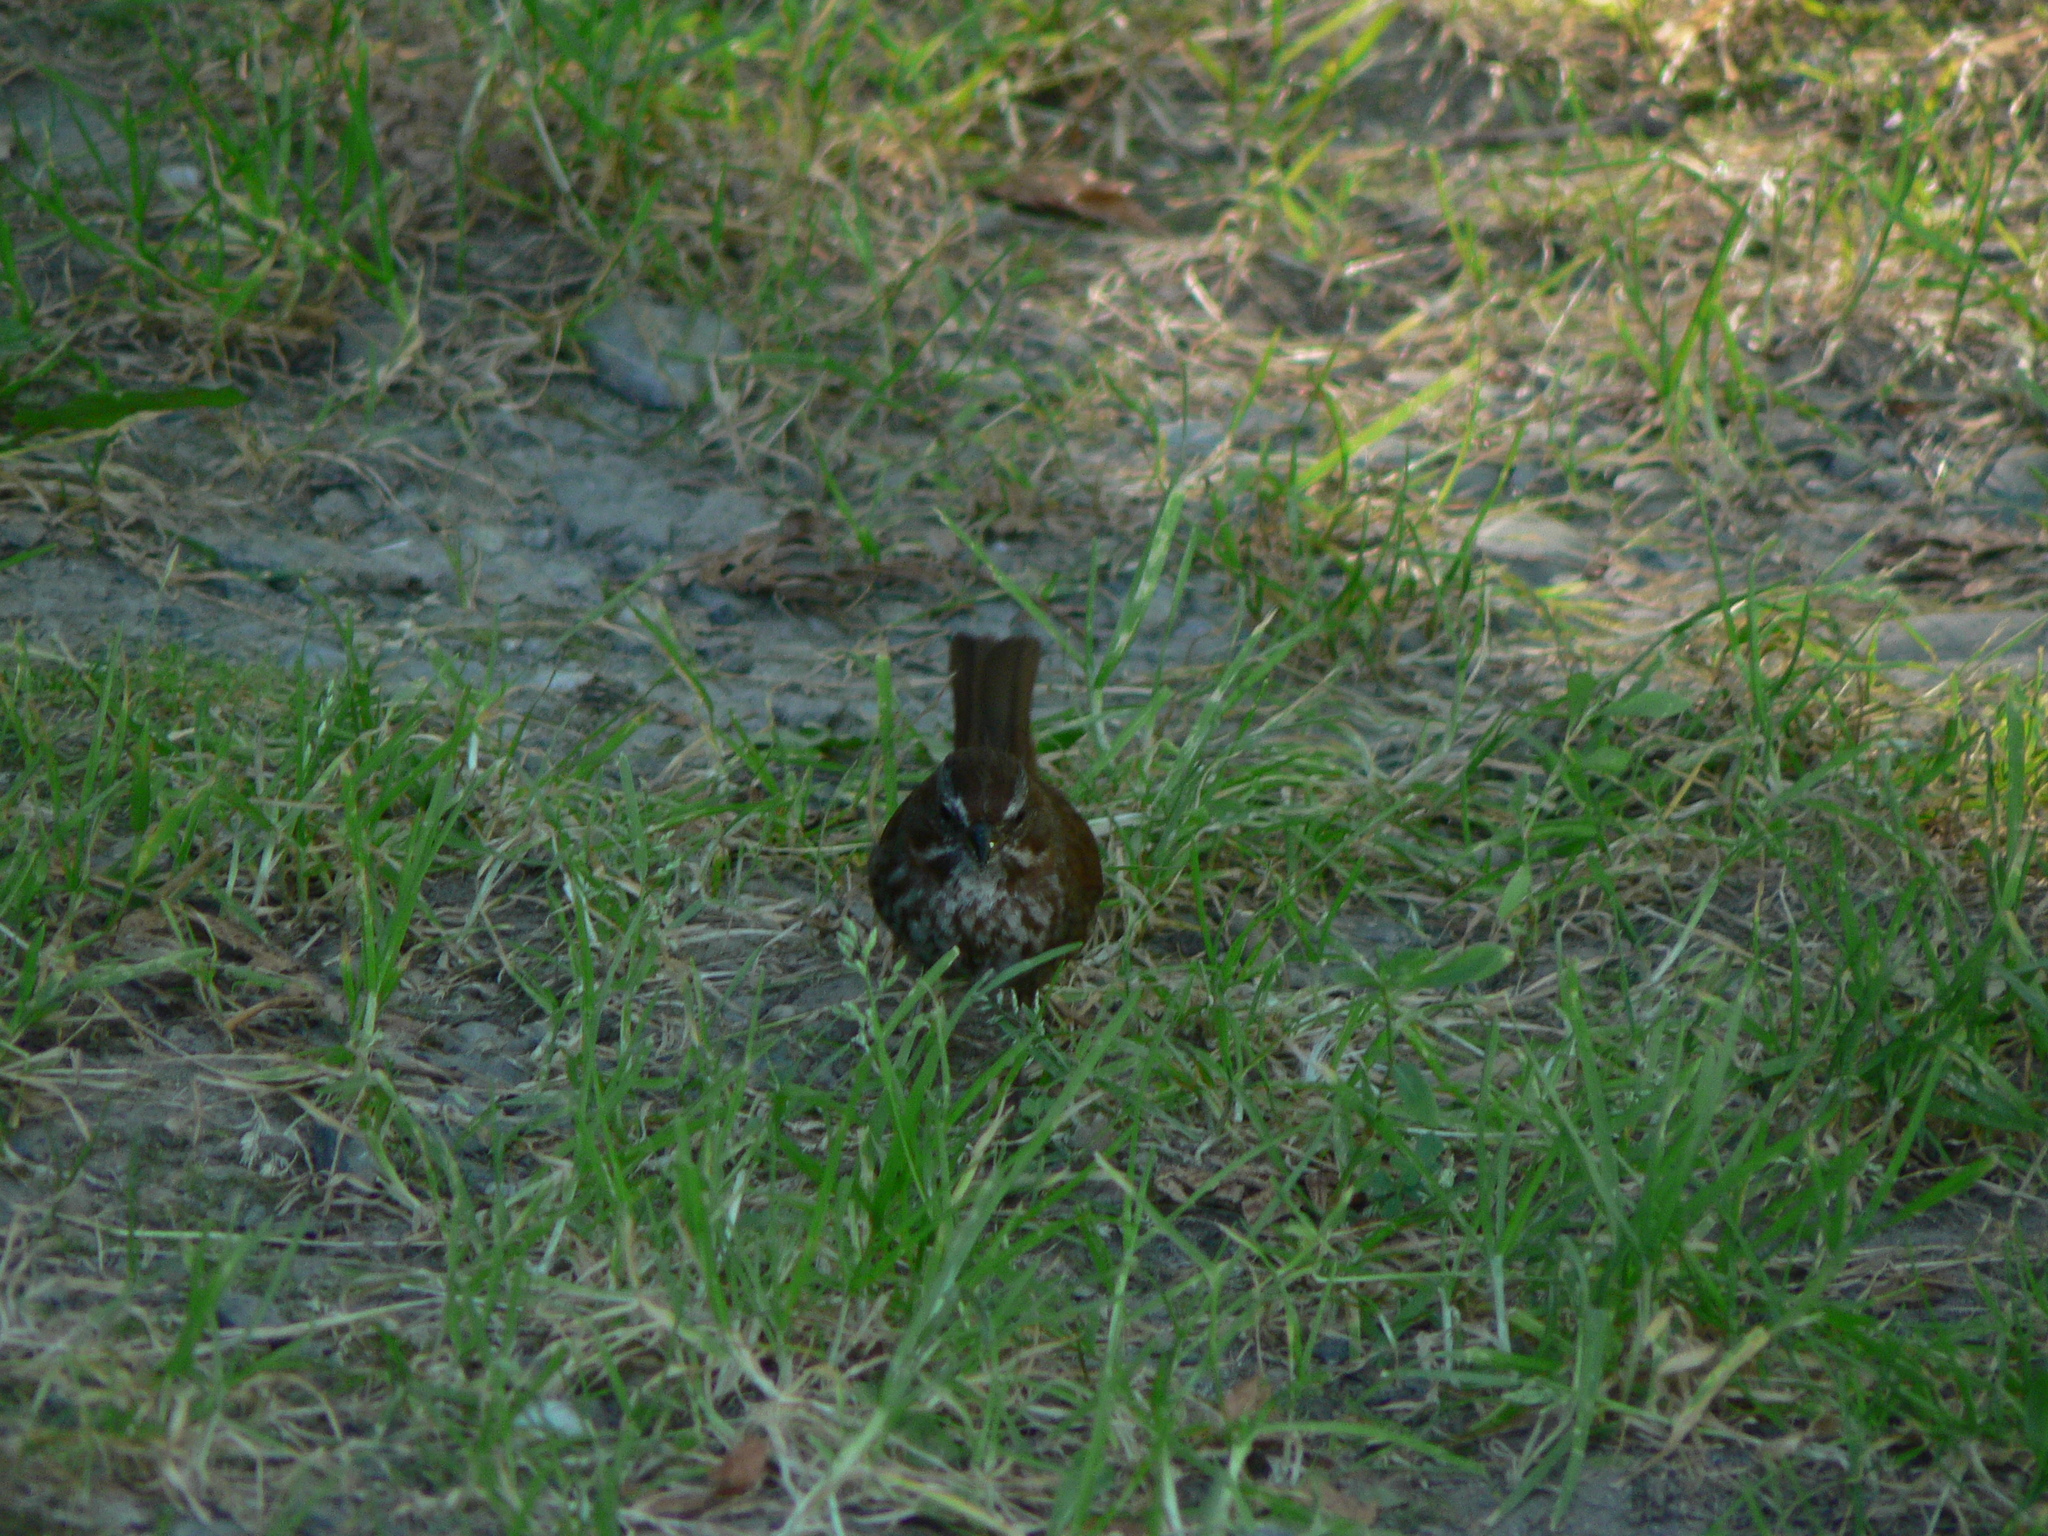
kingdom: Animalia
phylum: Chordata
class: Aves
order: Passeriformes
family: Passerellidae
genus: Melospiza
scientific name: Melospiza melodia
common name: Song sparrow
